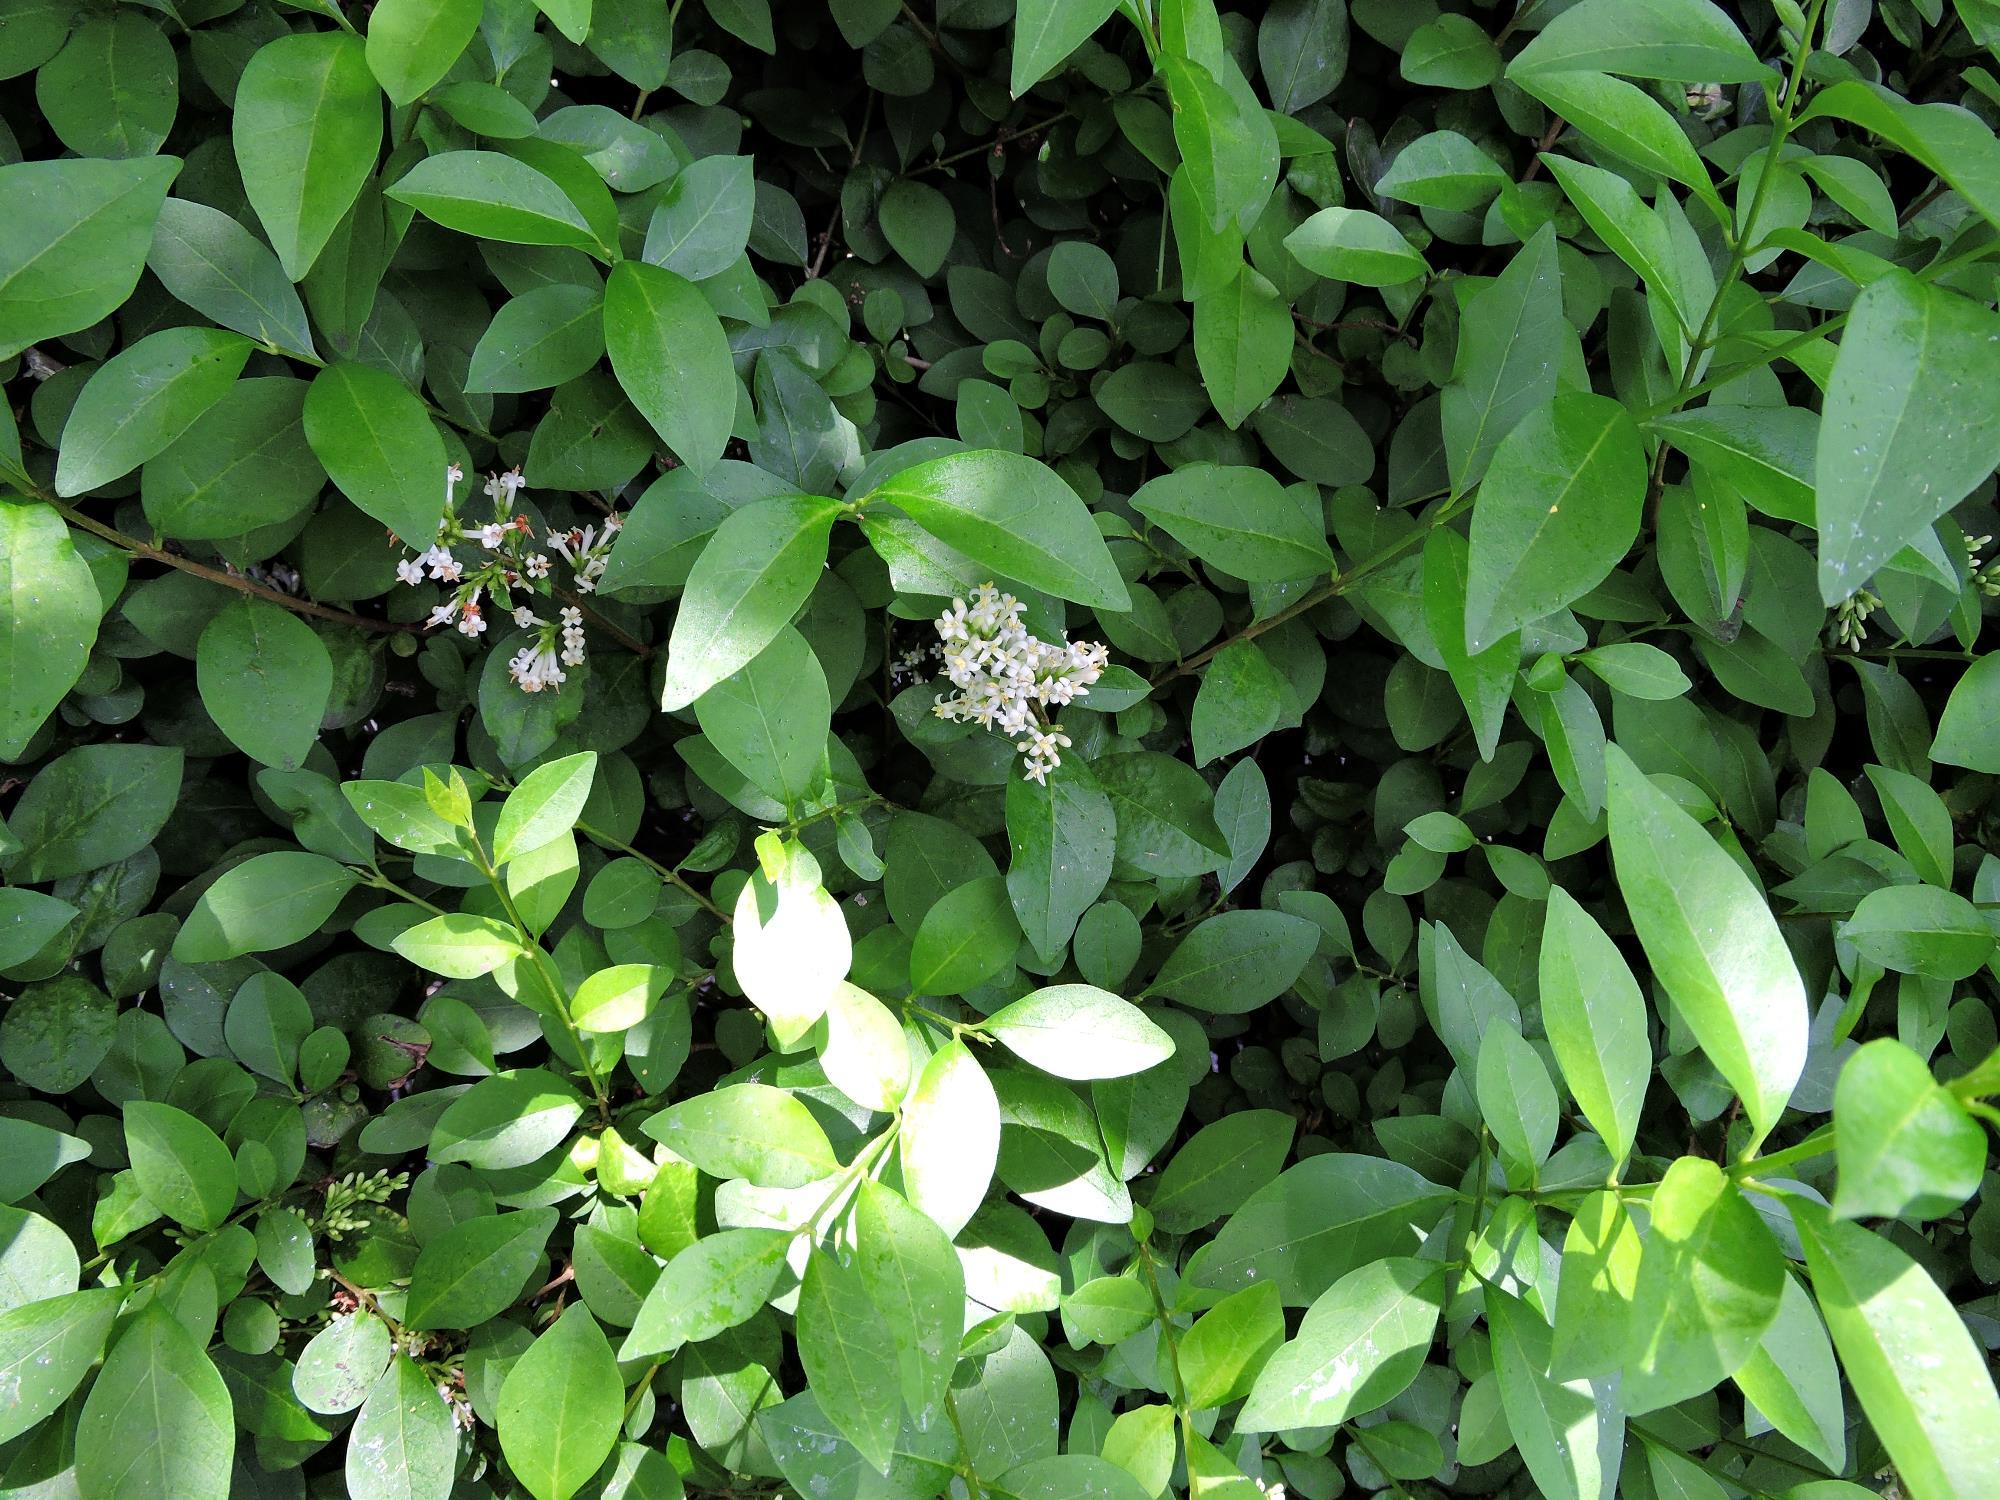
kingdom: Plantae
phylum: Tracheophyta
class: Magnoliopsida
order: Lamiales
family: Oleaceae
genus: Ligustrum
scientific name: Ligustrum ovalifolium
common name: California privet
